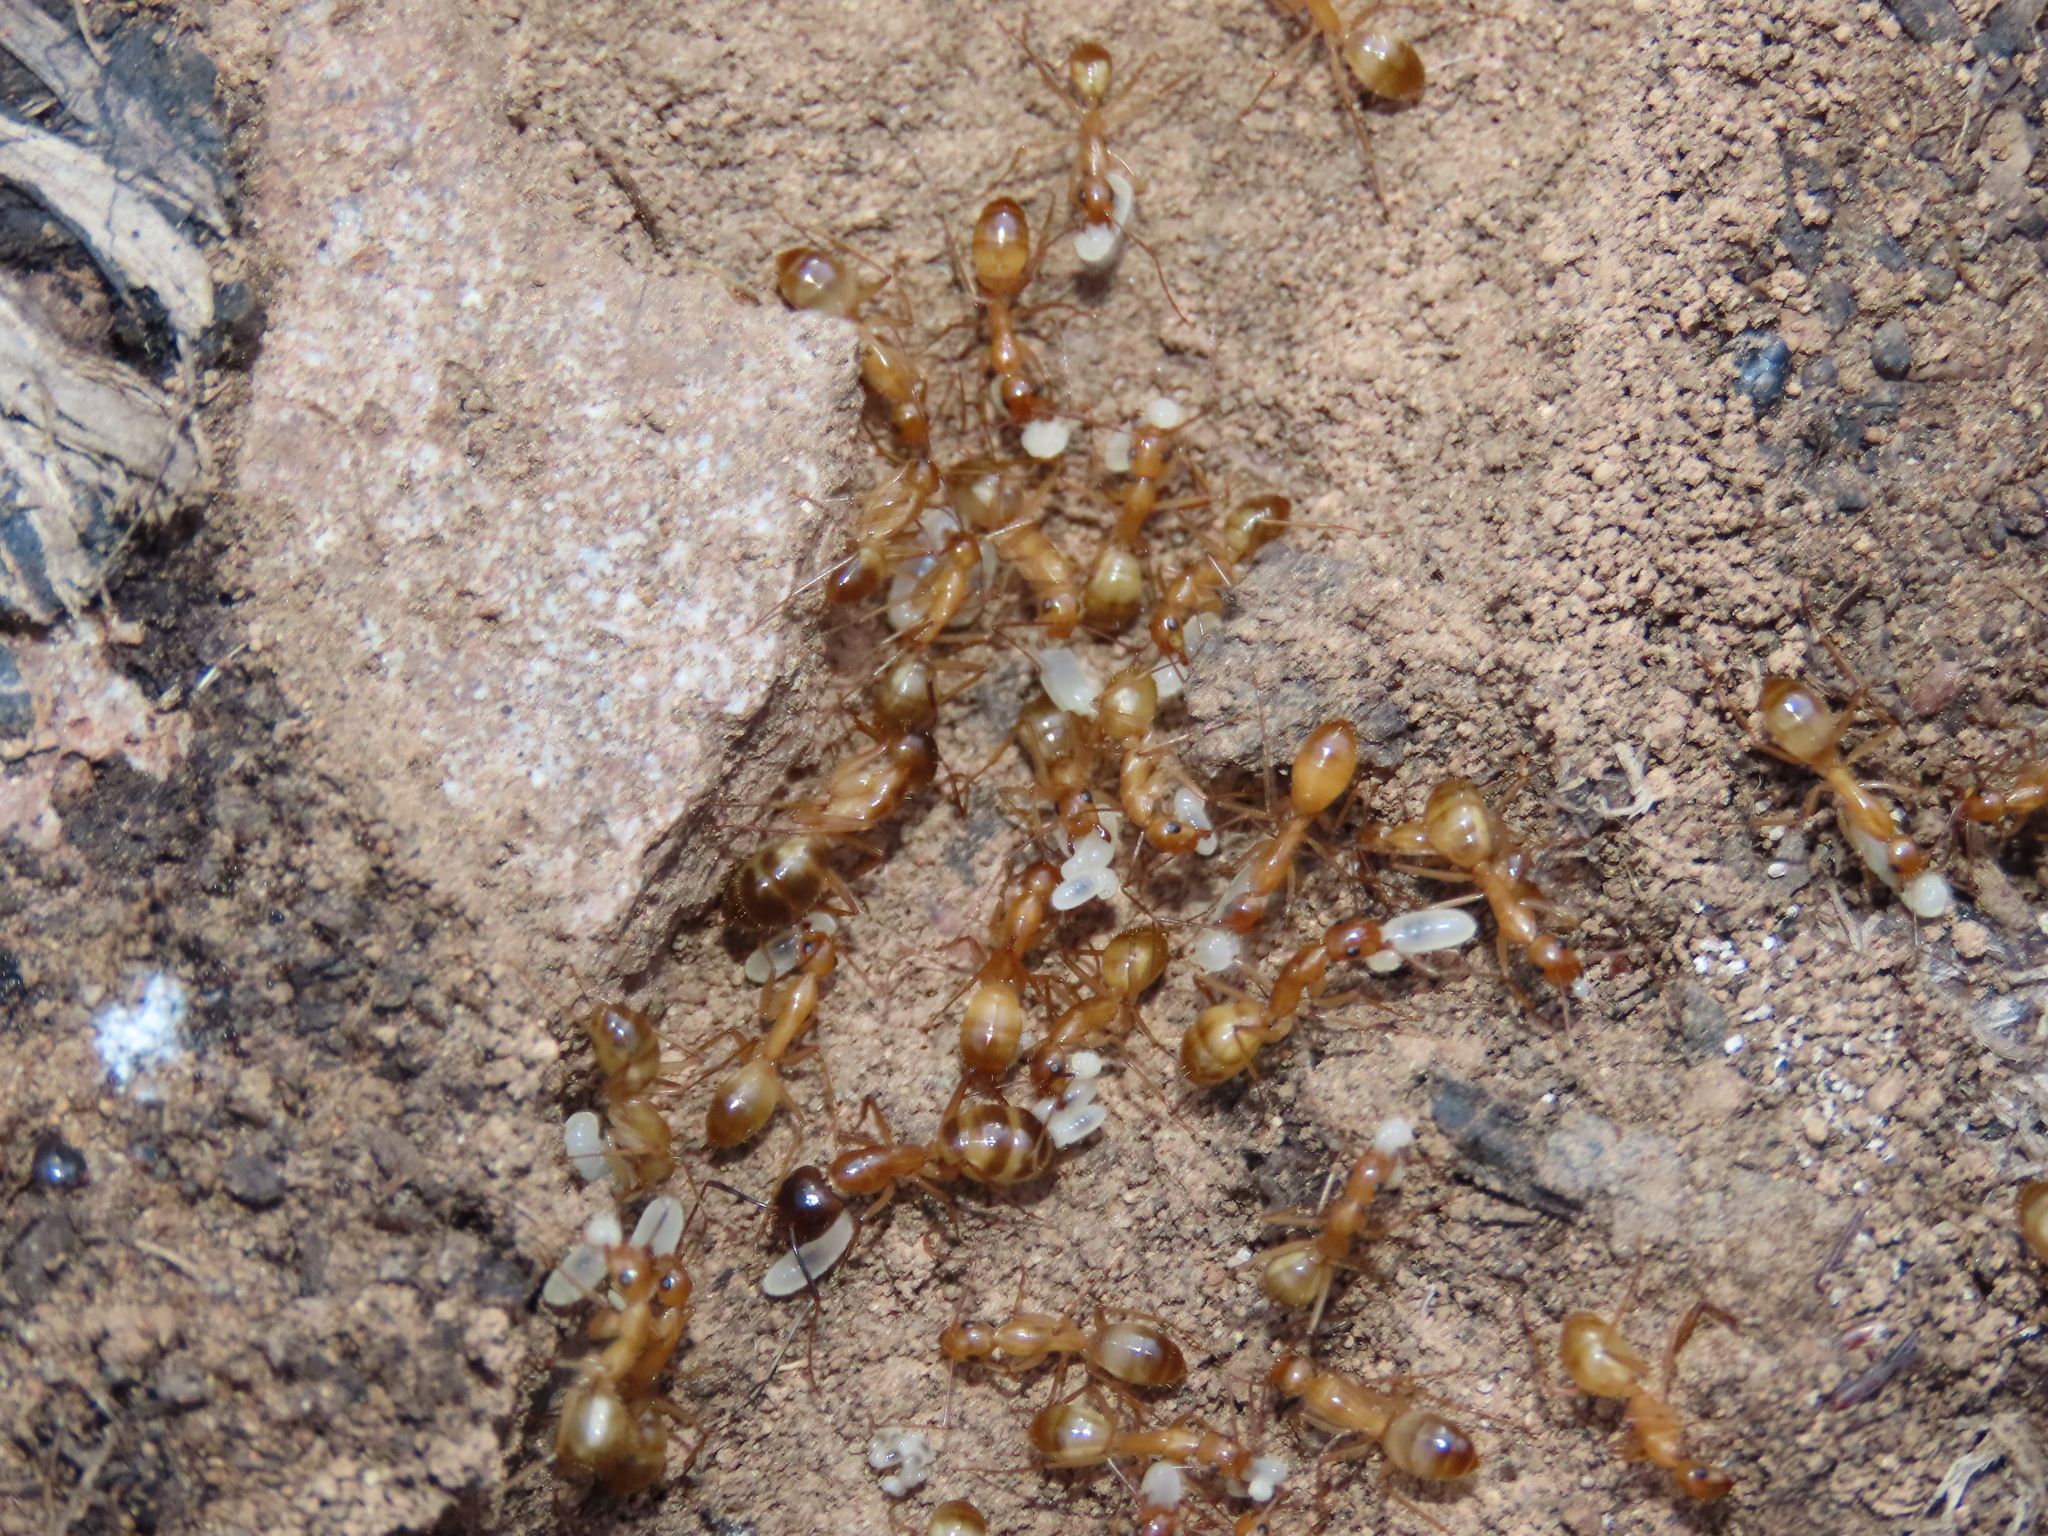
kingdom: Animalia
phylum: Arthropoda
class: Insecta
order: Hymenoptera
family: Formicidae
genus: Camponotus
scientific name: Camponotus pudorosus
